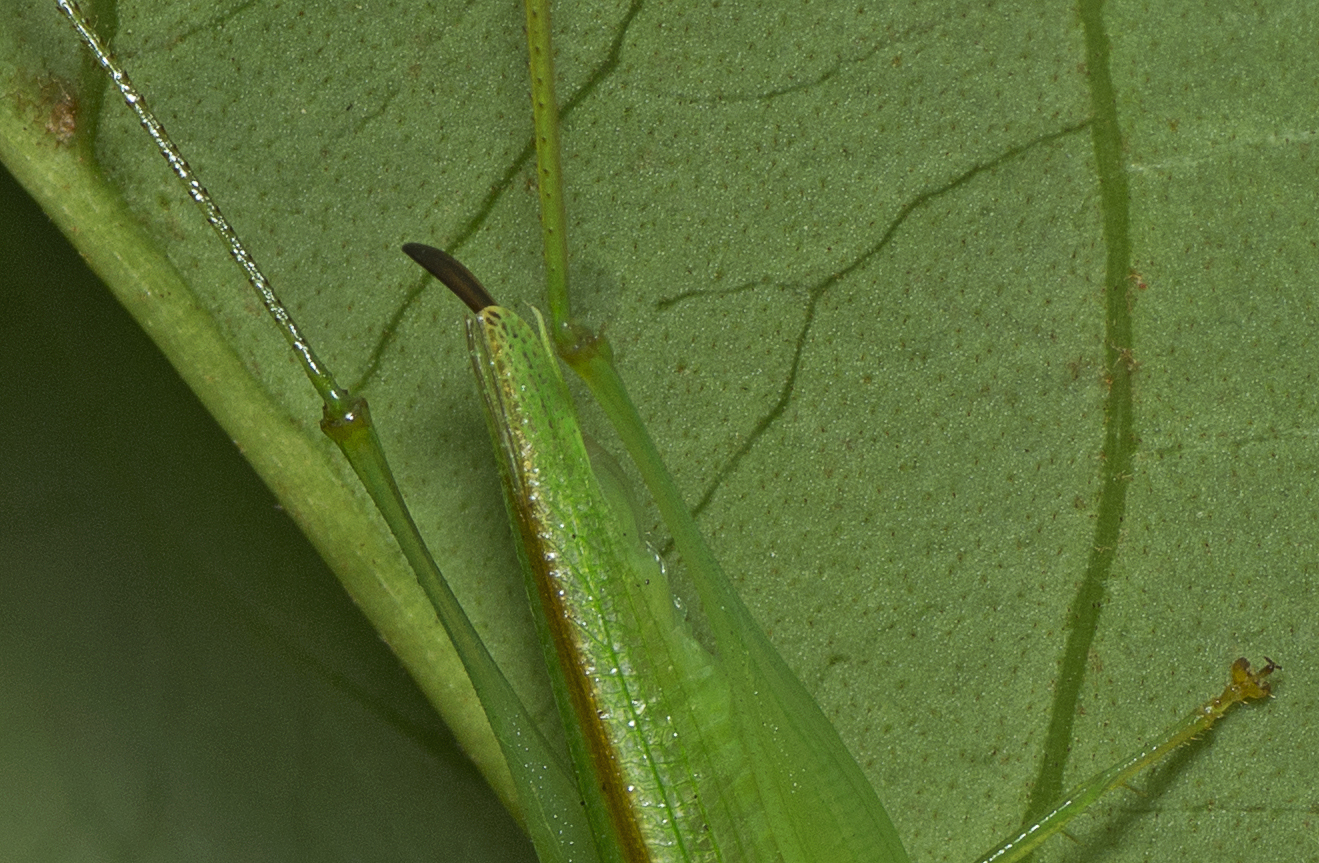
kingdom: Animalia
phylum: Arthropoda
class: Insecta
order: Orthoptera
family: Tettigoniidae
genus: Austrophlugis
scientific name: Austrophlugis debaari
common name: Debaar's swayer
